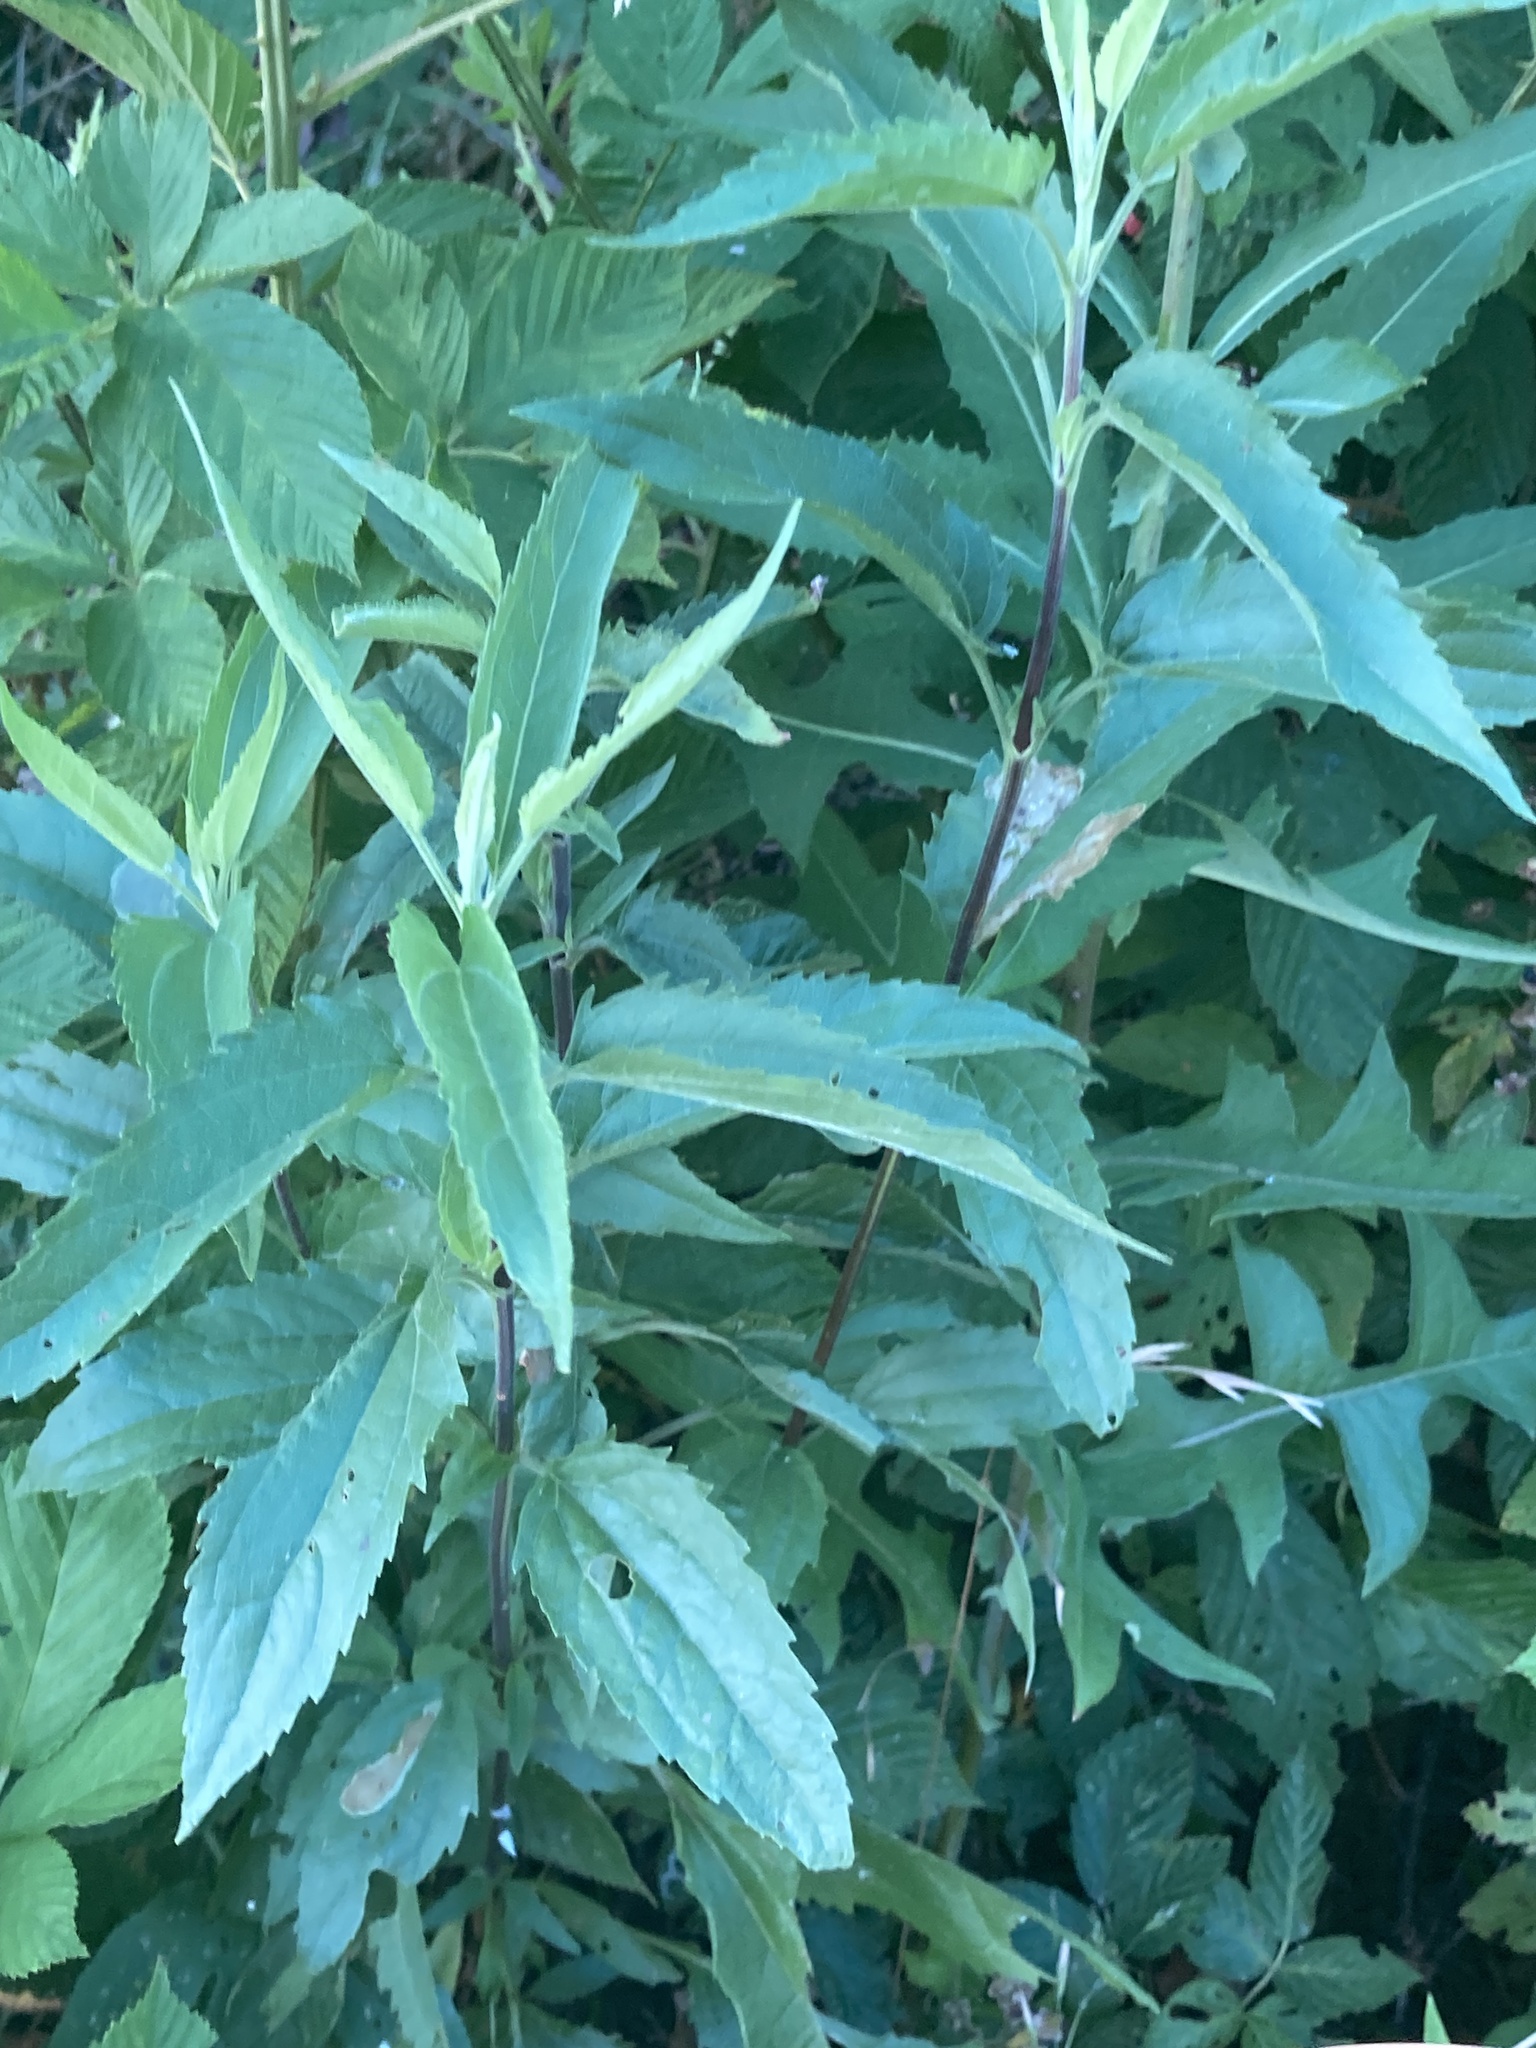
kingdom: Plantae
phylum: Tracheophyta
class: Magnoliopsida
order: Asterales
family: Asteraceae
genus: Eupatorium
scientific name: Eupatorium serotinum
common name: Late boneset
